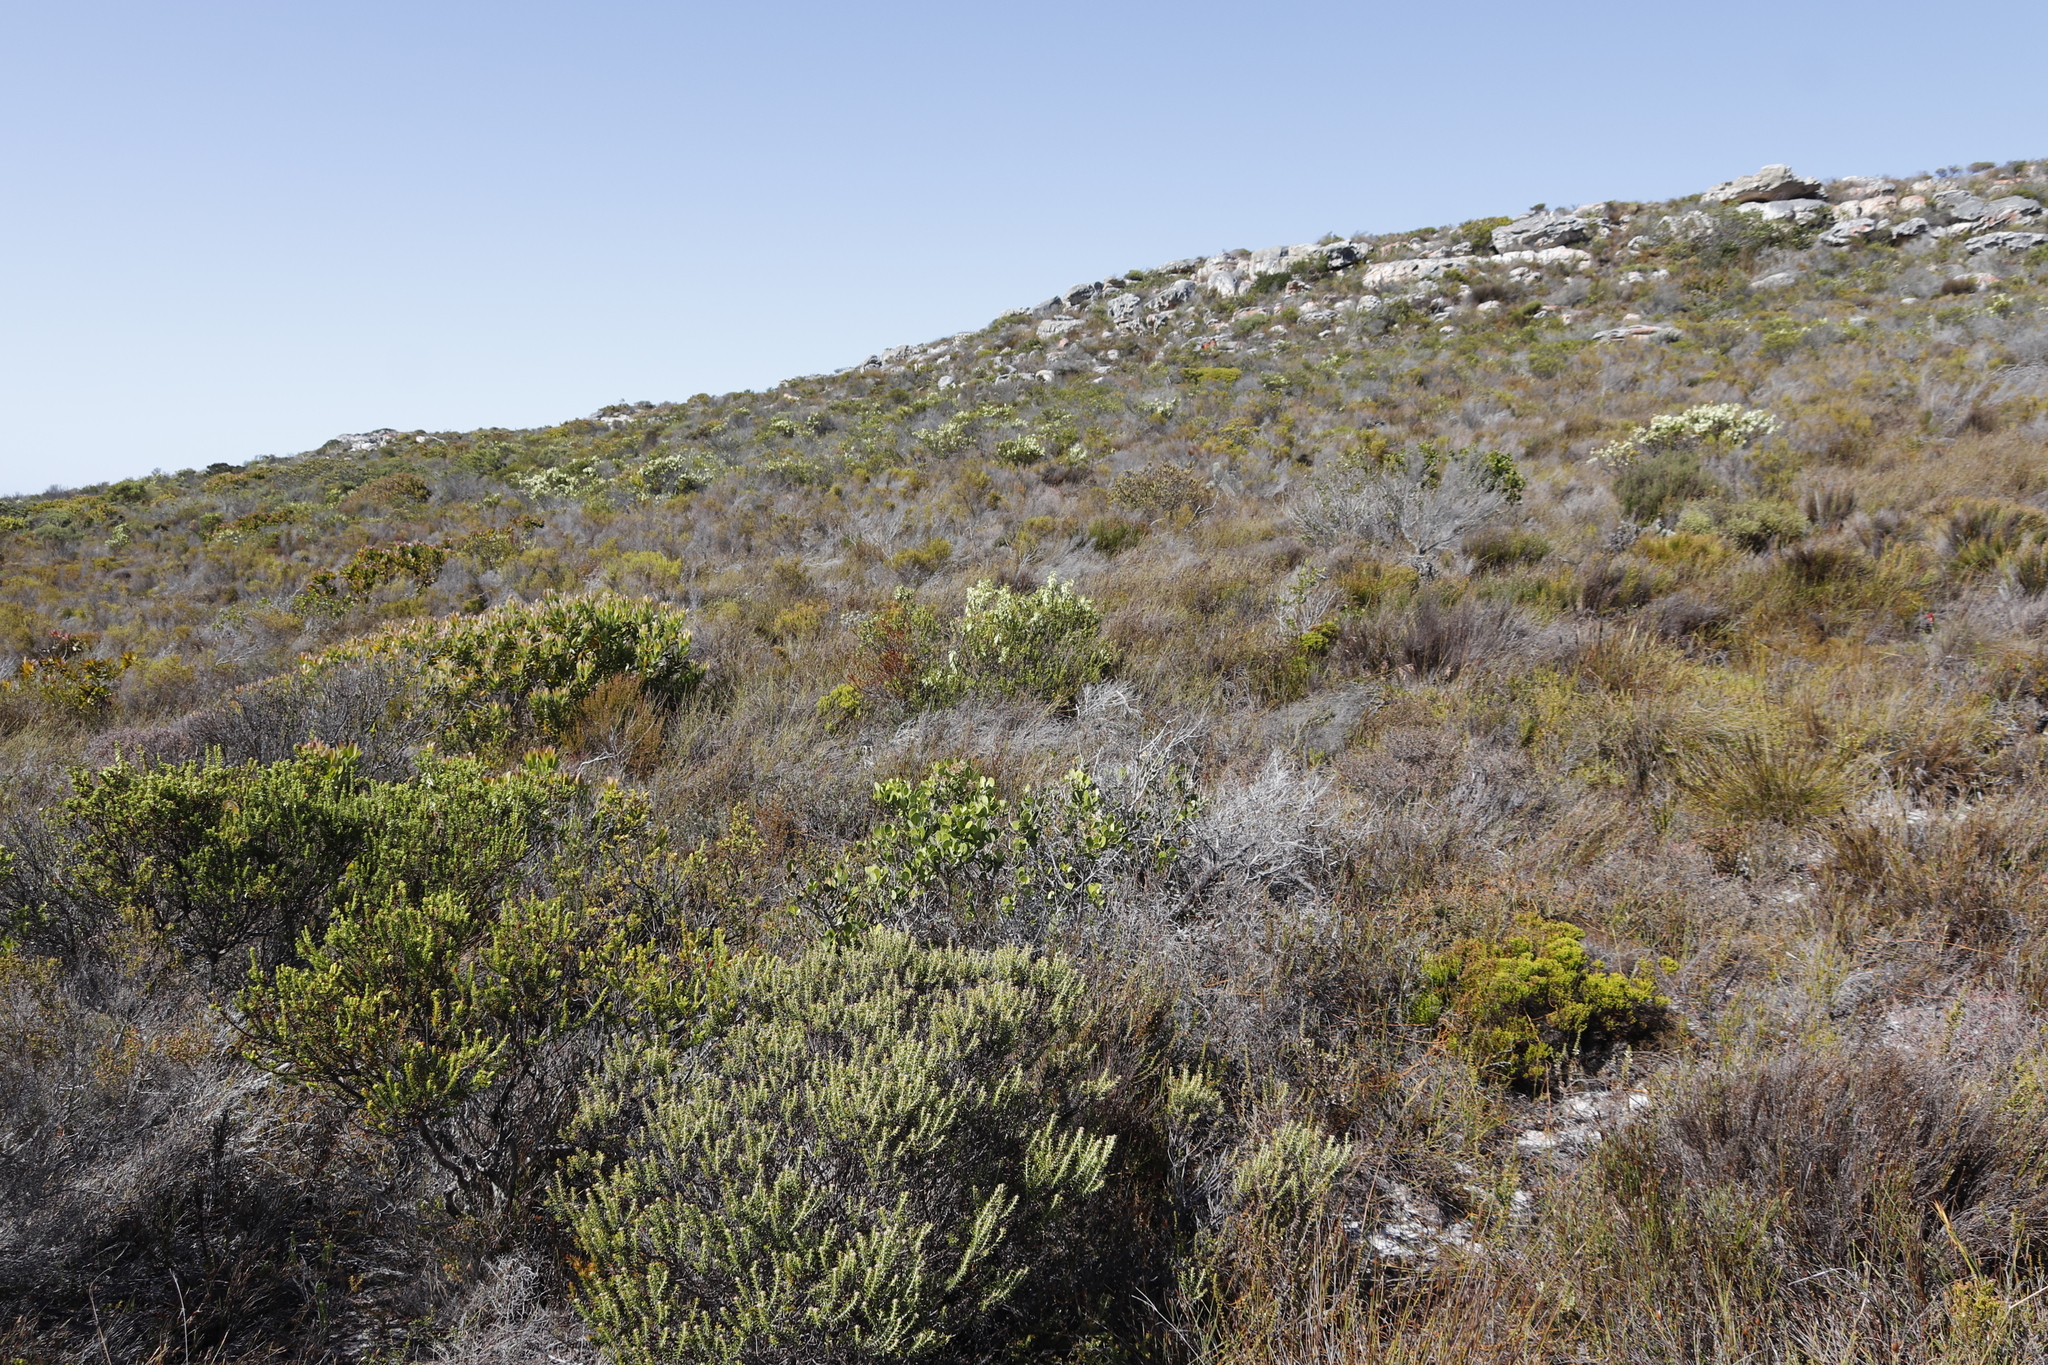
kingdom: Plantae
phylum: Tracheophyta
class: Magnoliopsida
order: Ericales
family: Ericaceae
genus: Erica
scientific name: Erica mammosa
